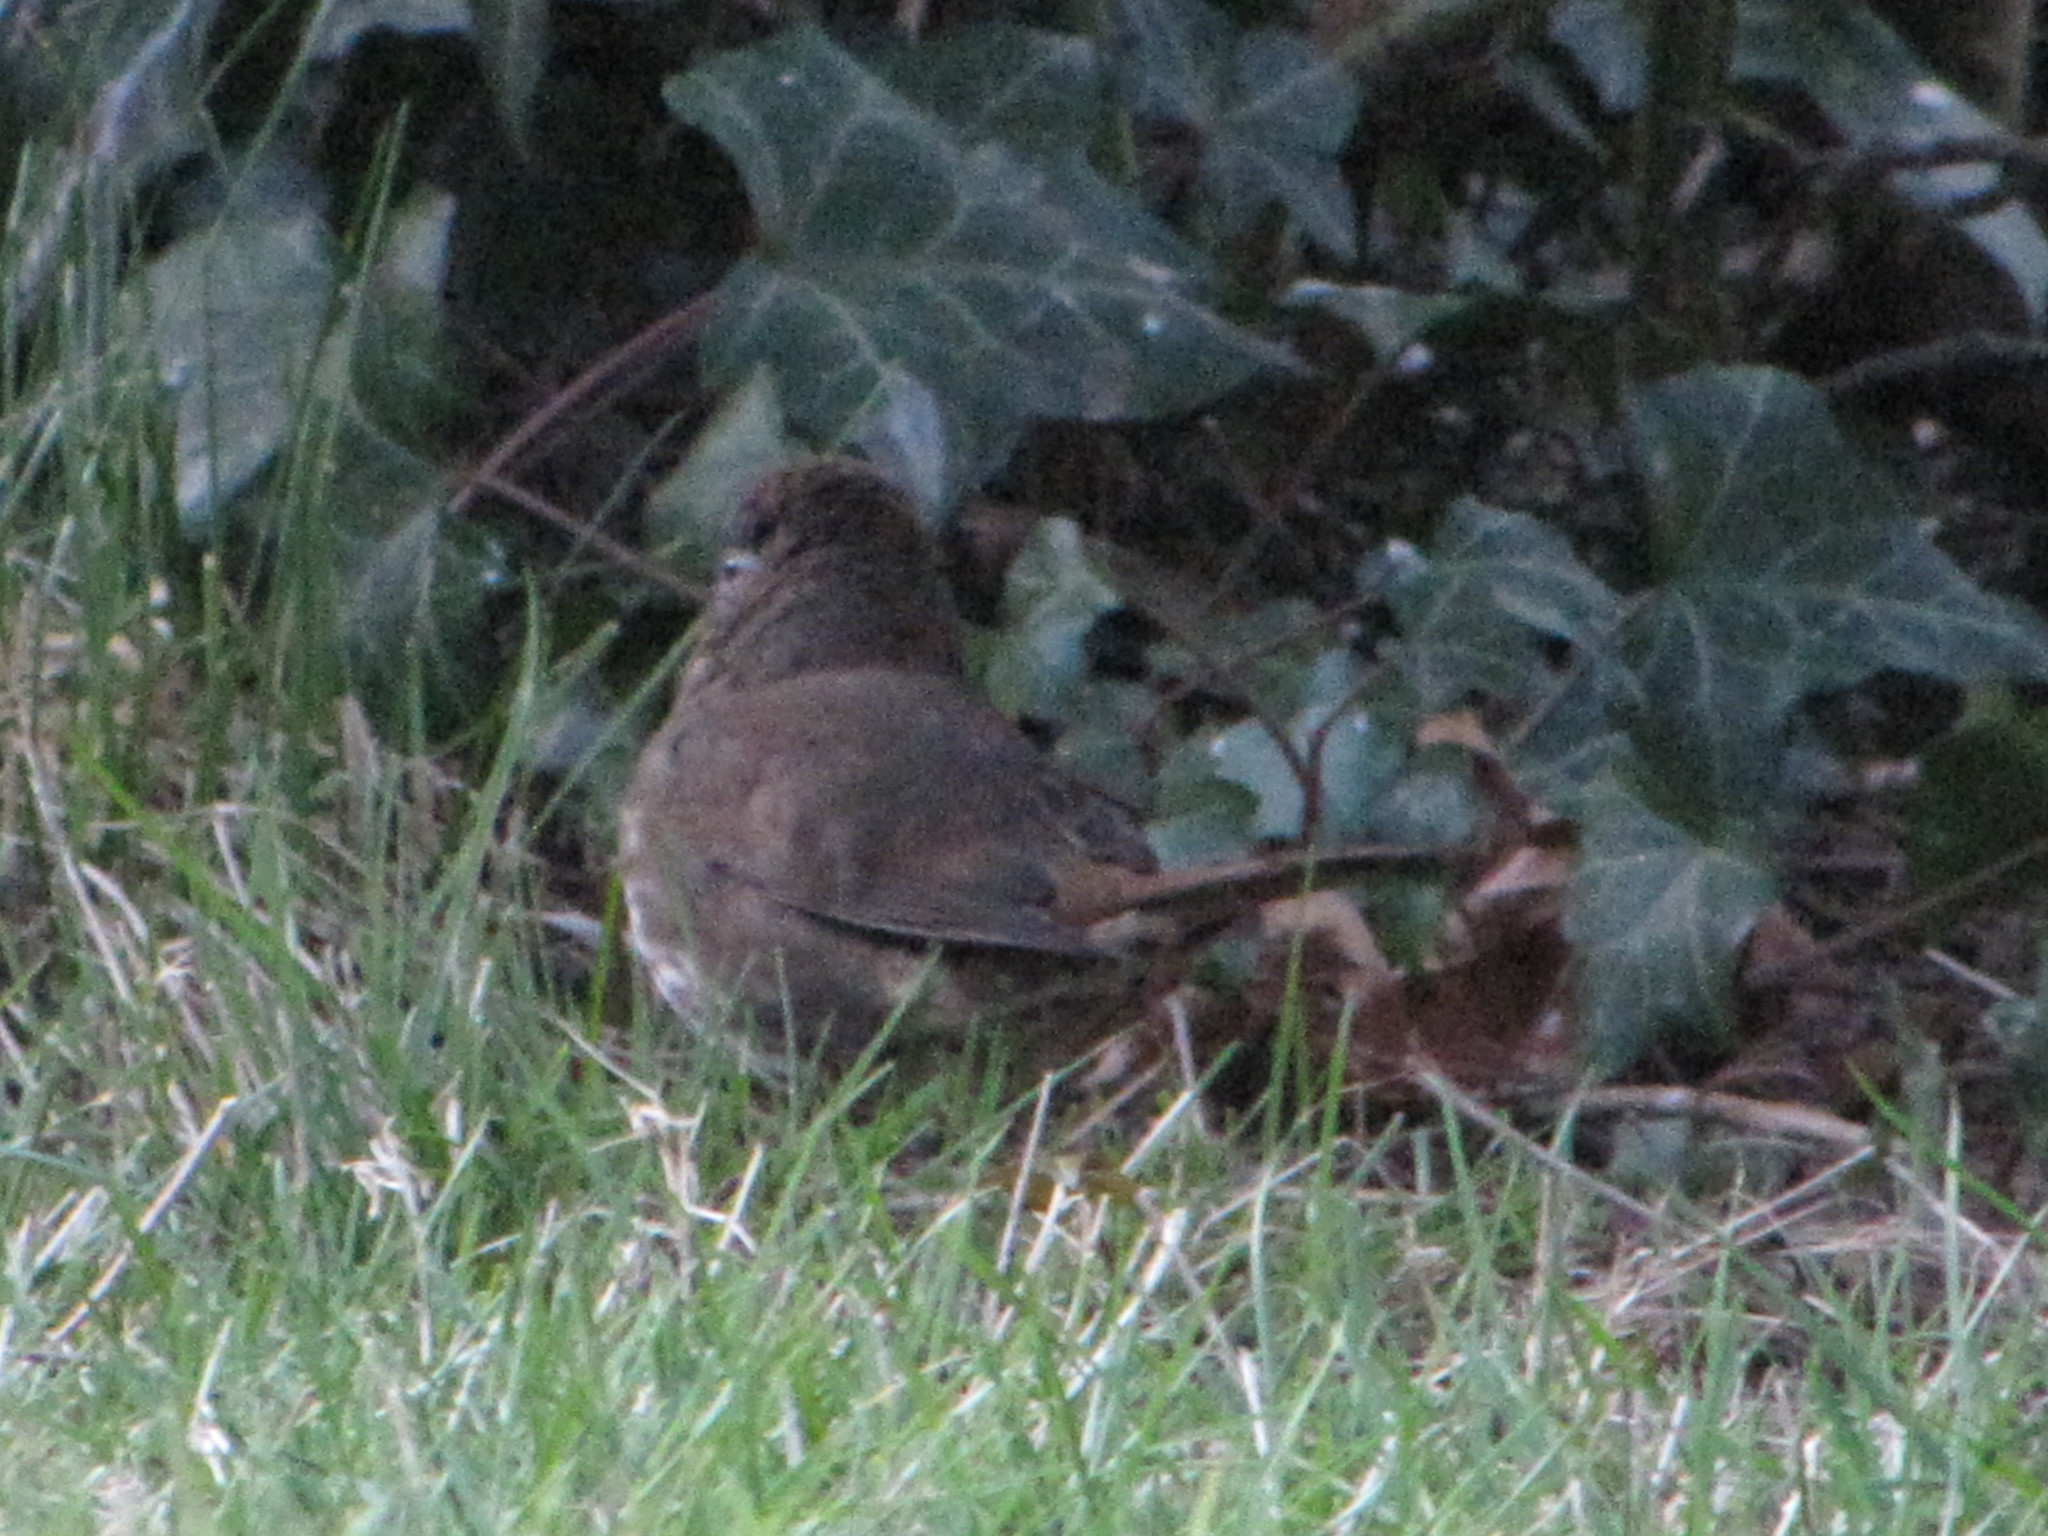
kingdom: Animalia
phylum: Chordata
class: Aves
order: Passeriformes
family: Passerellidae
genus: Passerella
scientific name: Passerella iliaca
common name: Fox sparrow
